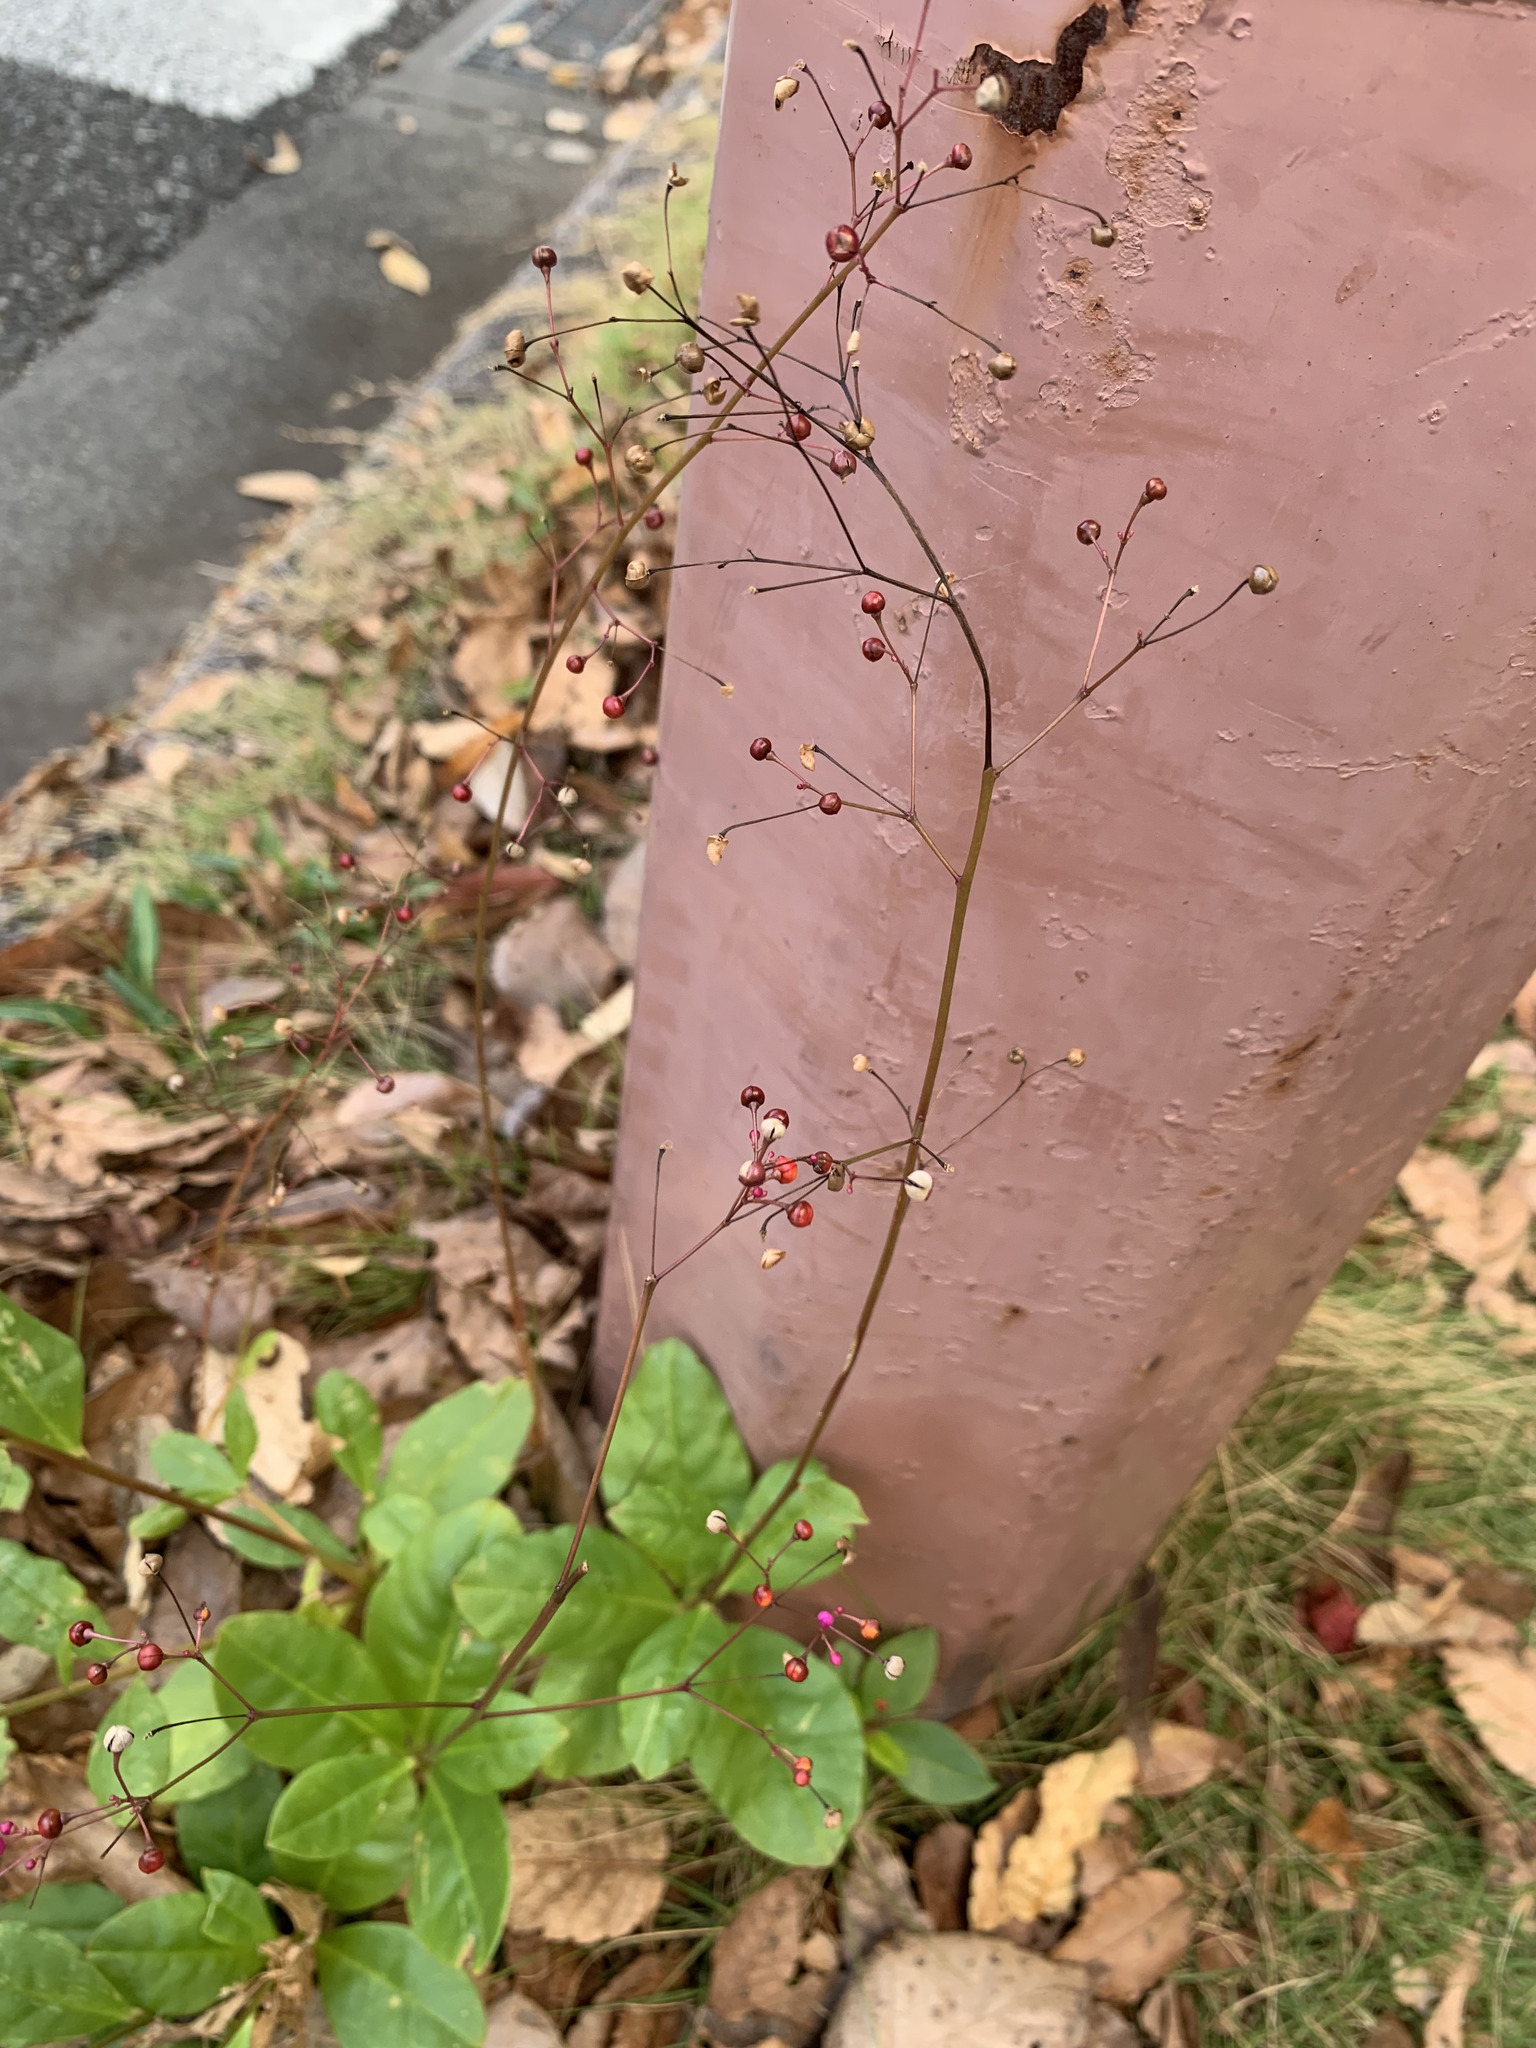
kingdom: Plantae
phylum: Tracheophyta
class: Magnoliopsida
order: Caryophyllales
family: Talinaceae
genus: Talinum
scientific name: Talinum paniculatum
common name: Jewels of opar
